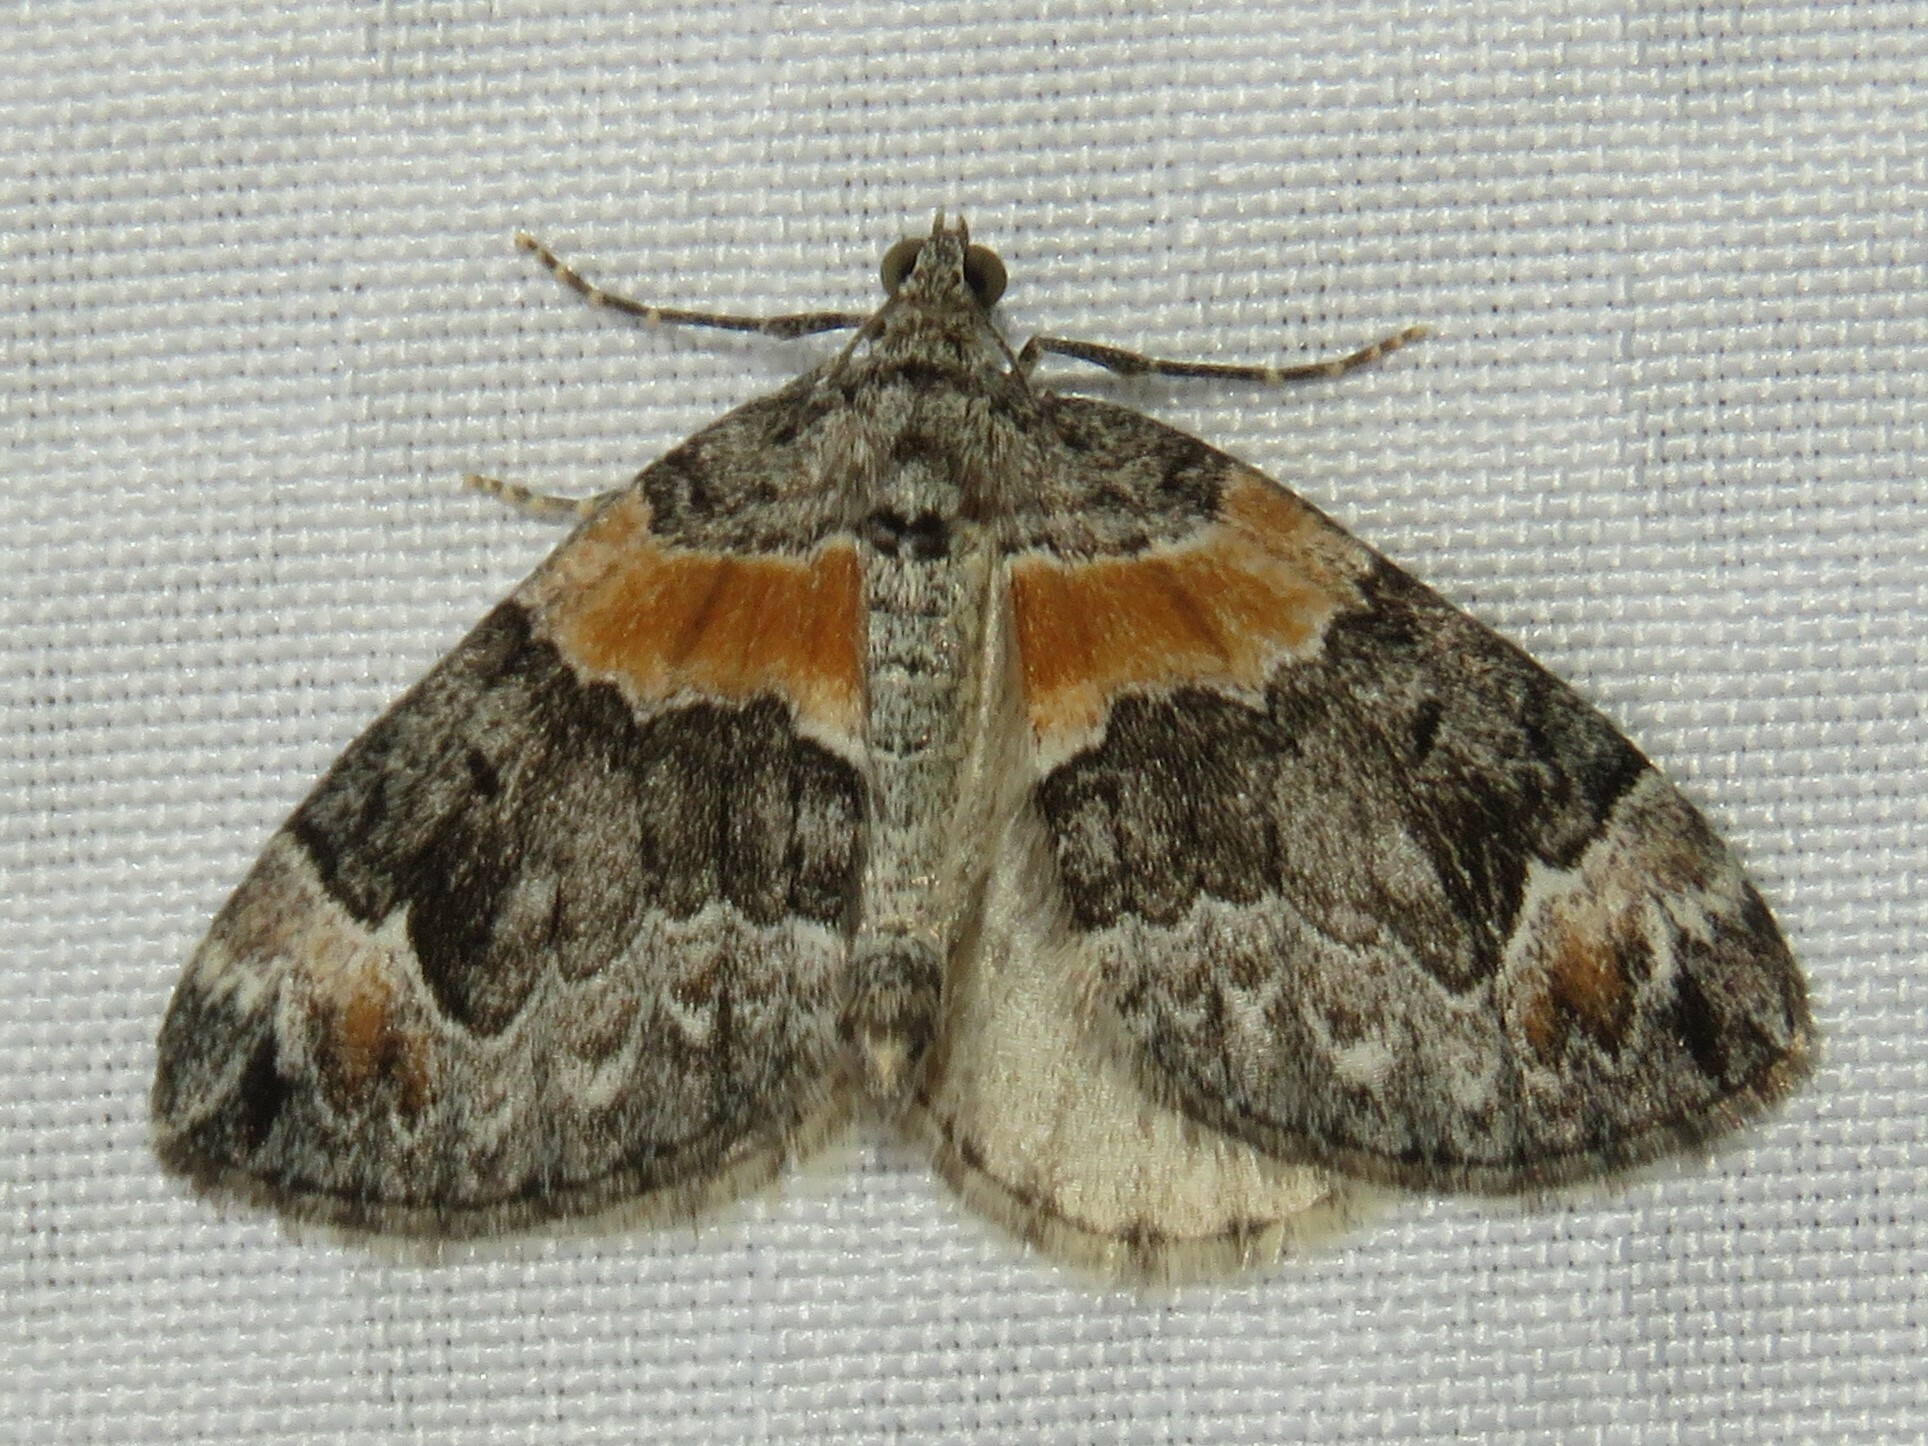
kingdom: Animalia
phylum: Arthropoda
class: Insecta
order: Lepidoptera
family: Geometridae
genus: Dysstroma
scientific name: Dysstroma hersiliata
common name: Orange-barred carpet
